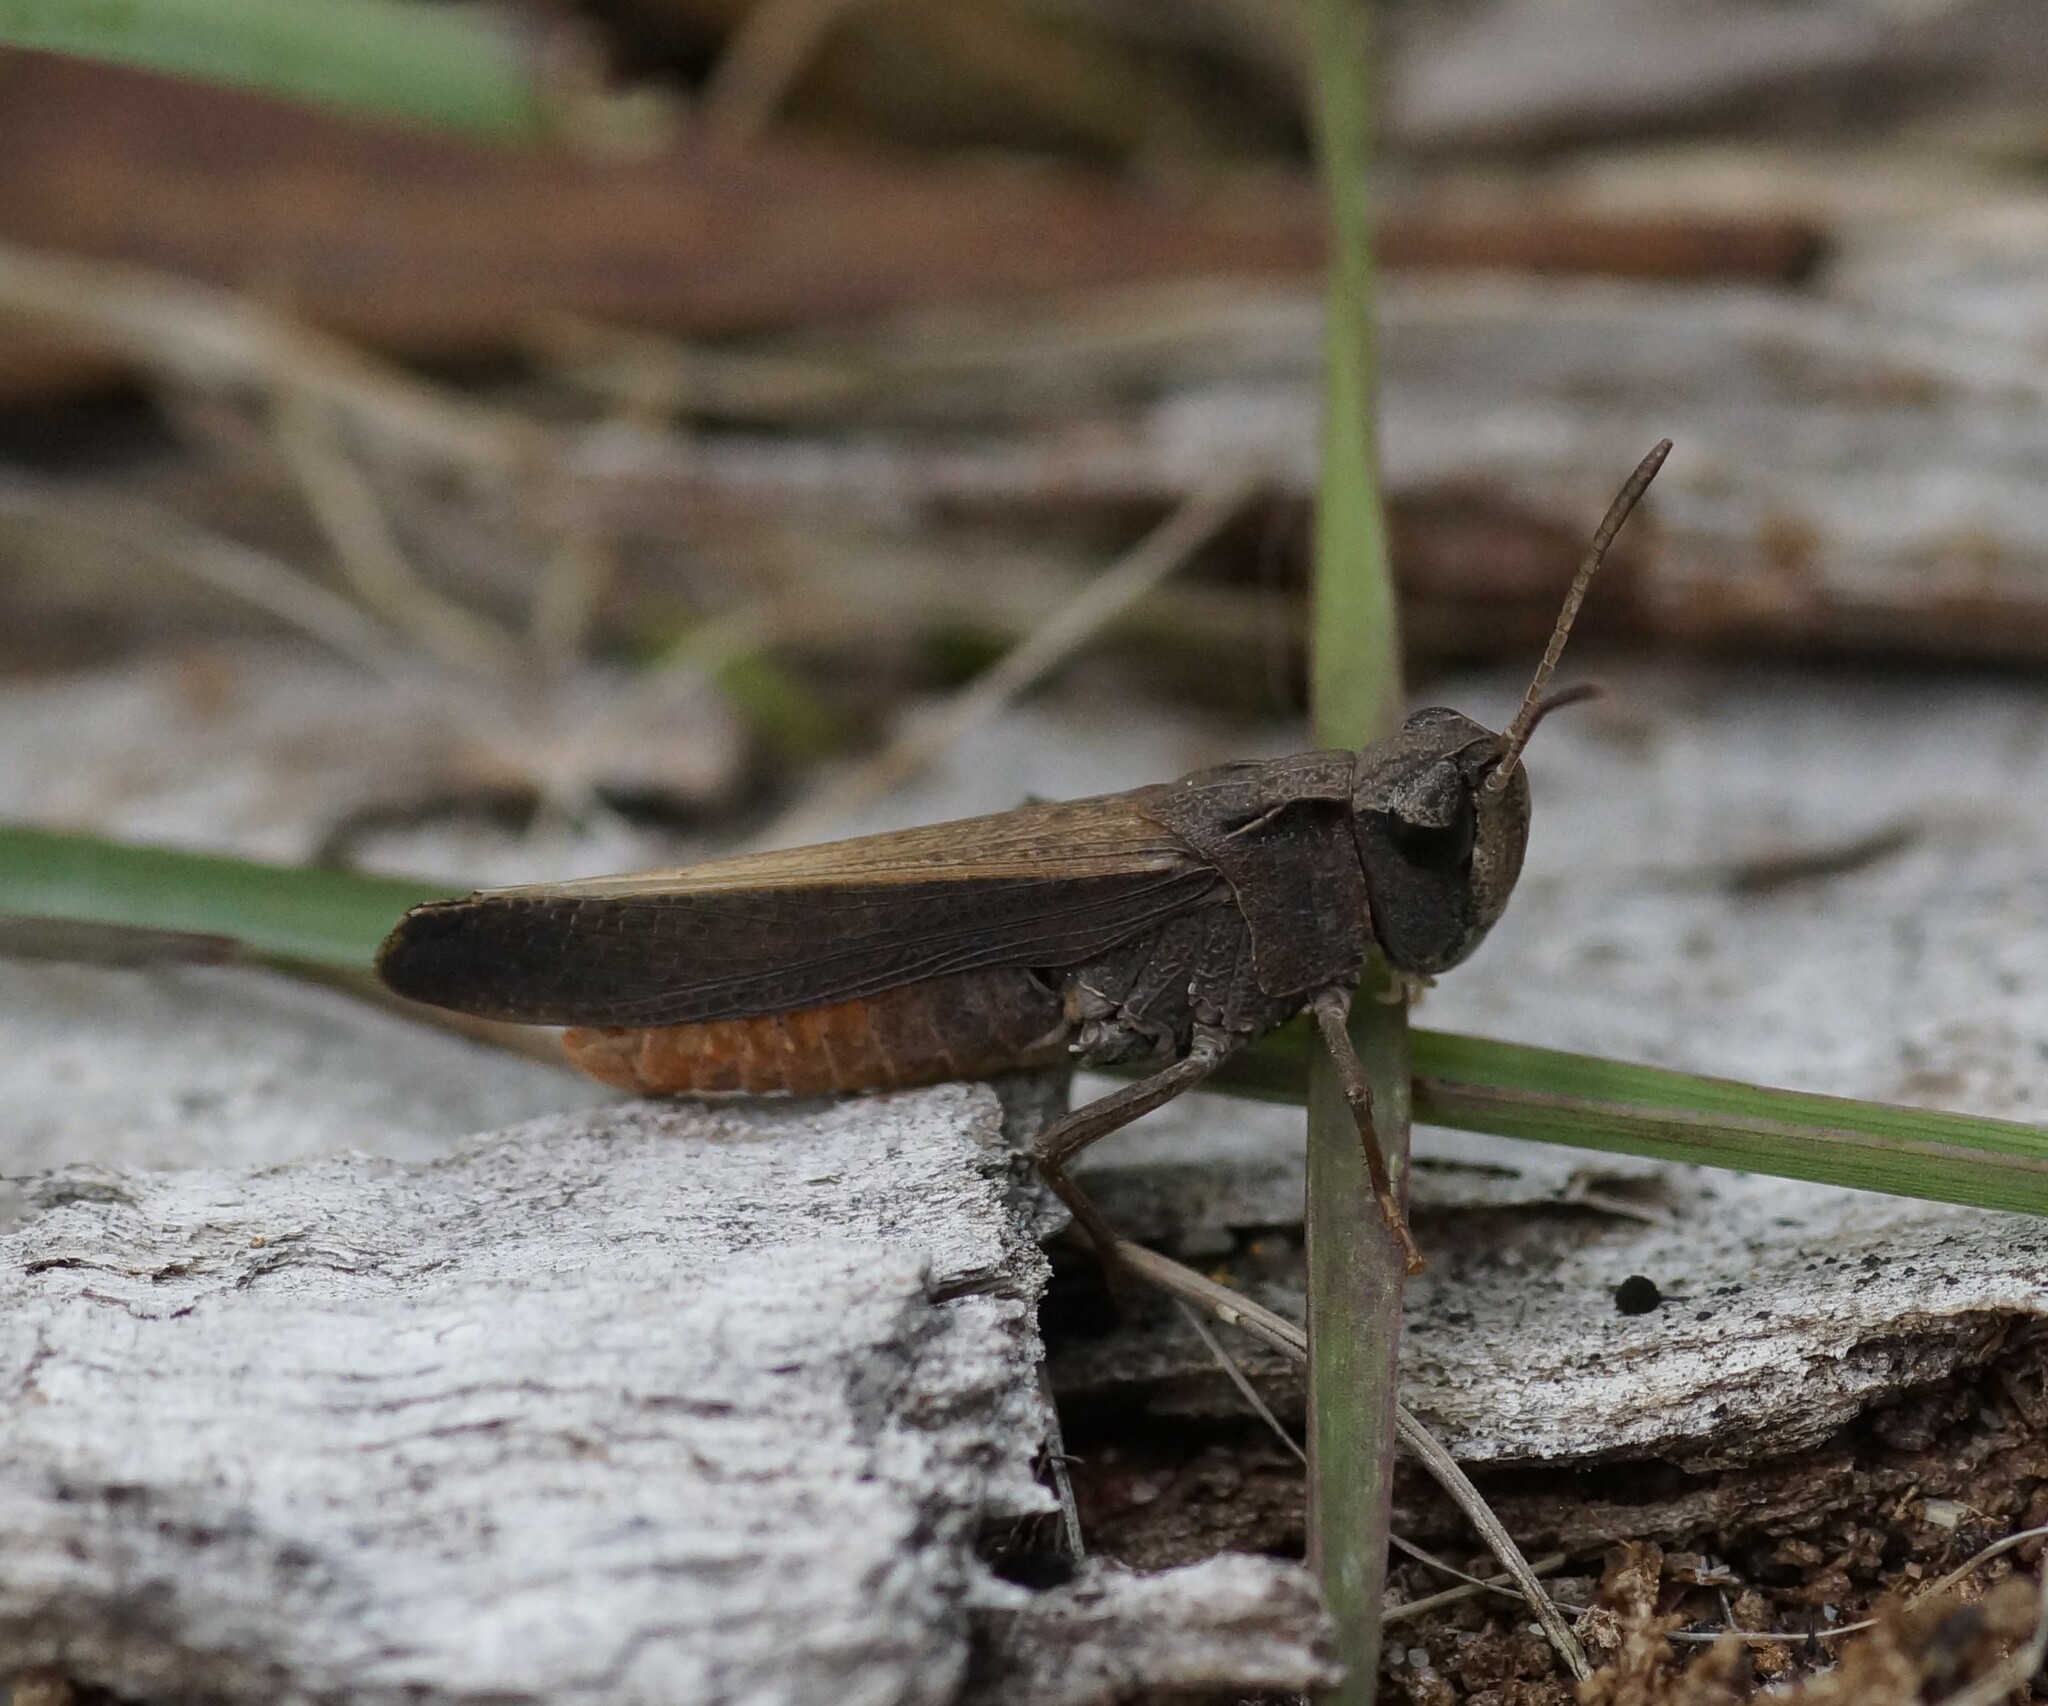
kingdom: Animalia
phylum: Arthropoda
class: Insecta
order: Orthoptera
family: Acrididae
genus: Cryptobothrus
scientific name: Cryptobothrus chrysophorus
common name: Golden bandwing
